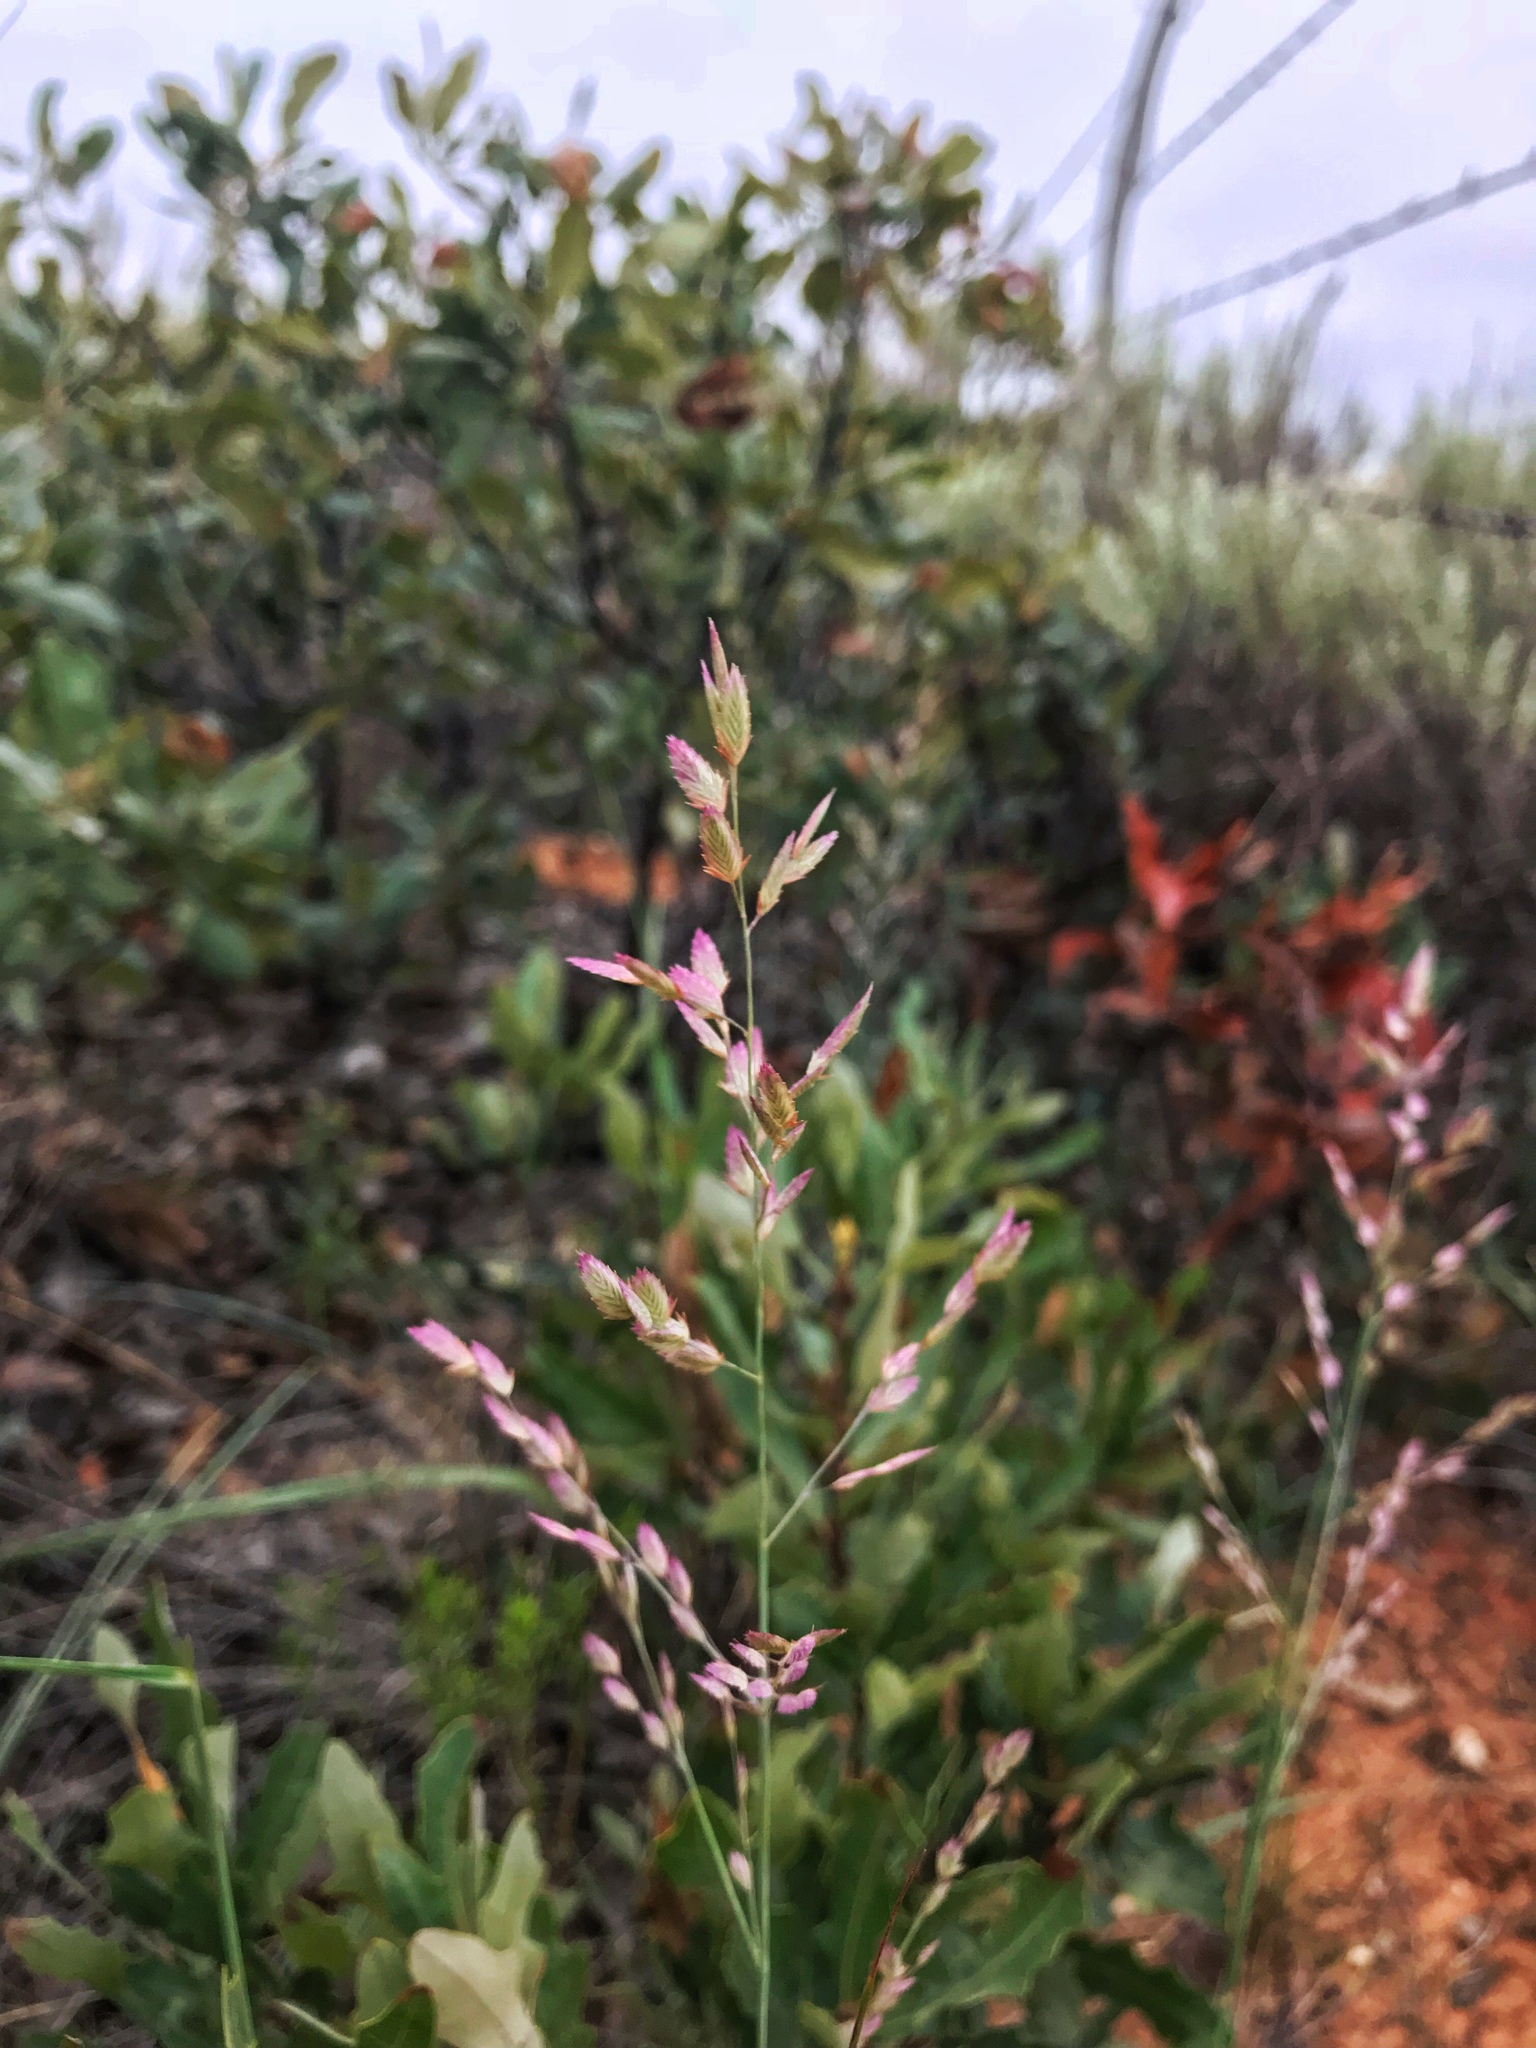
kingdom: Plantae
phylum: Tracheophyta
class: Liliopsida
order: Poales
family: Poaceae
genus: Eragrostis
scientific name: Eragrostis secundiflora
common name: Red love grass
